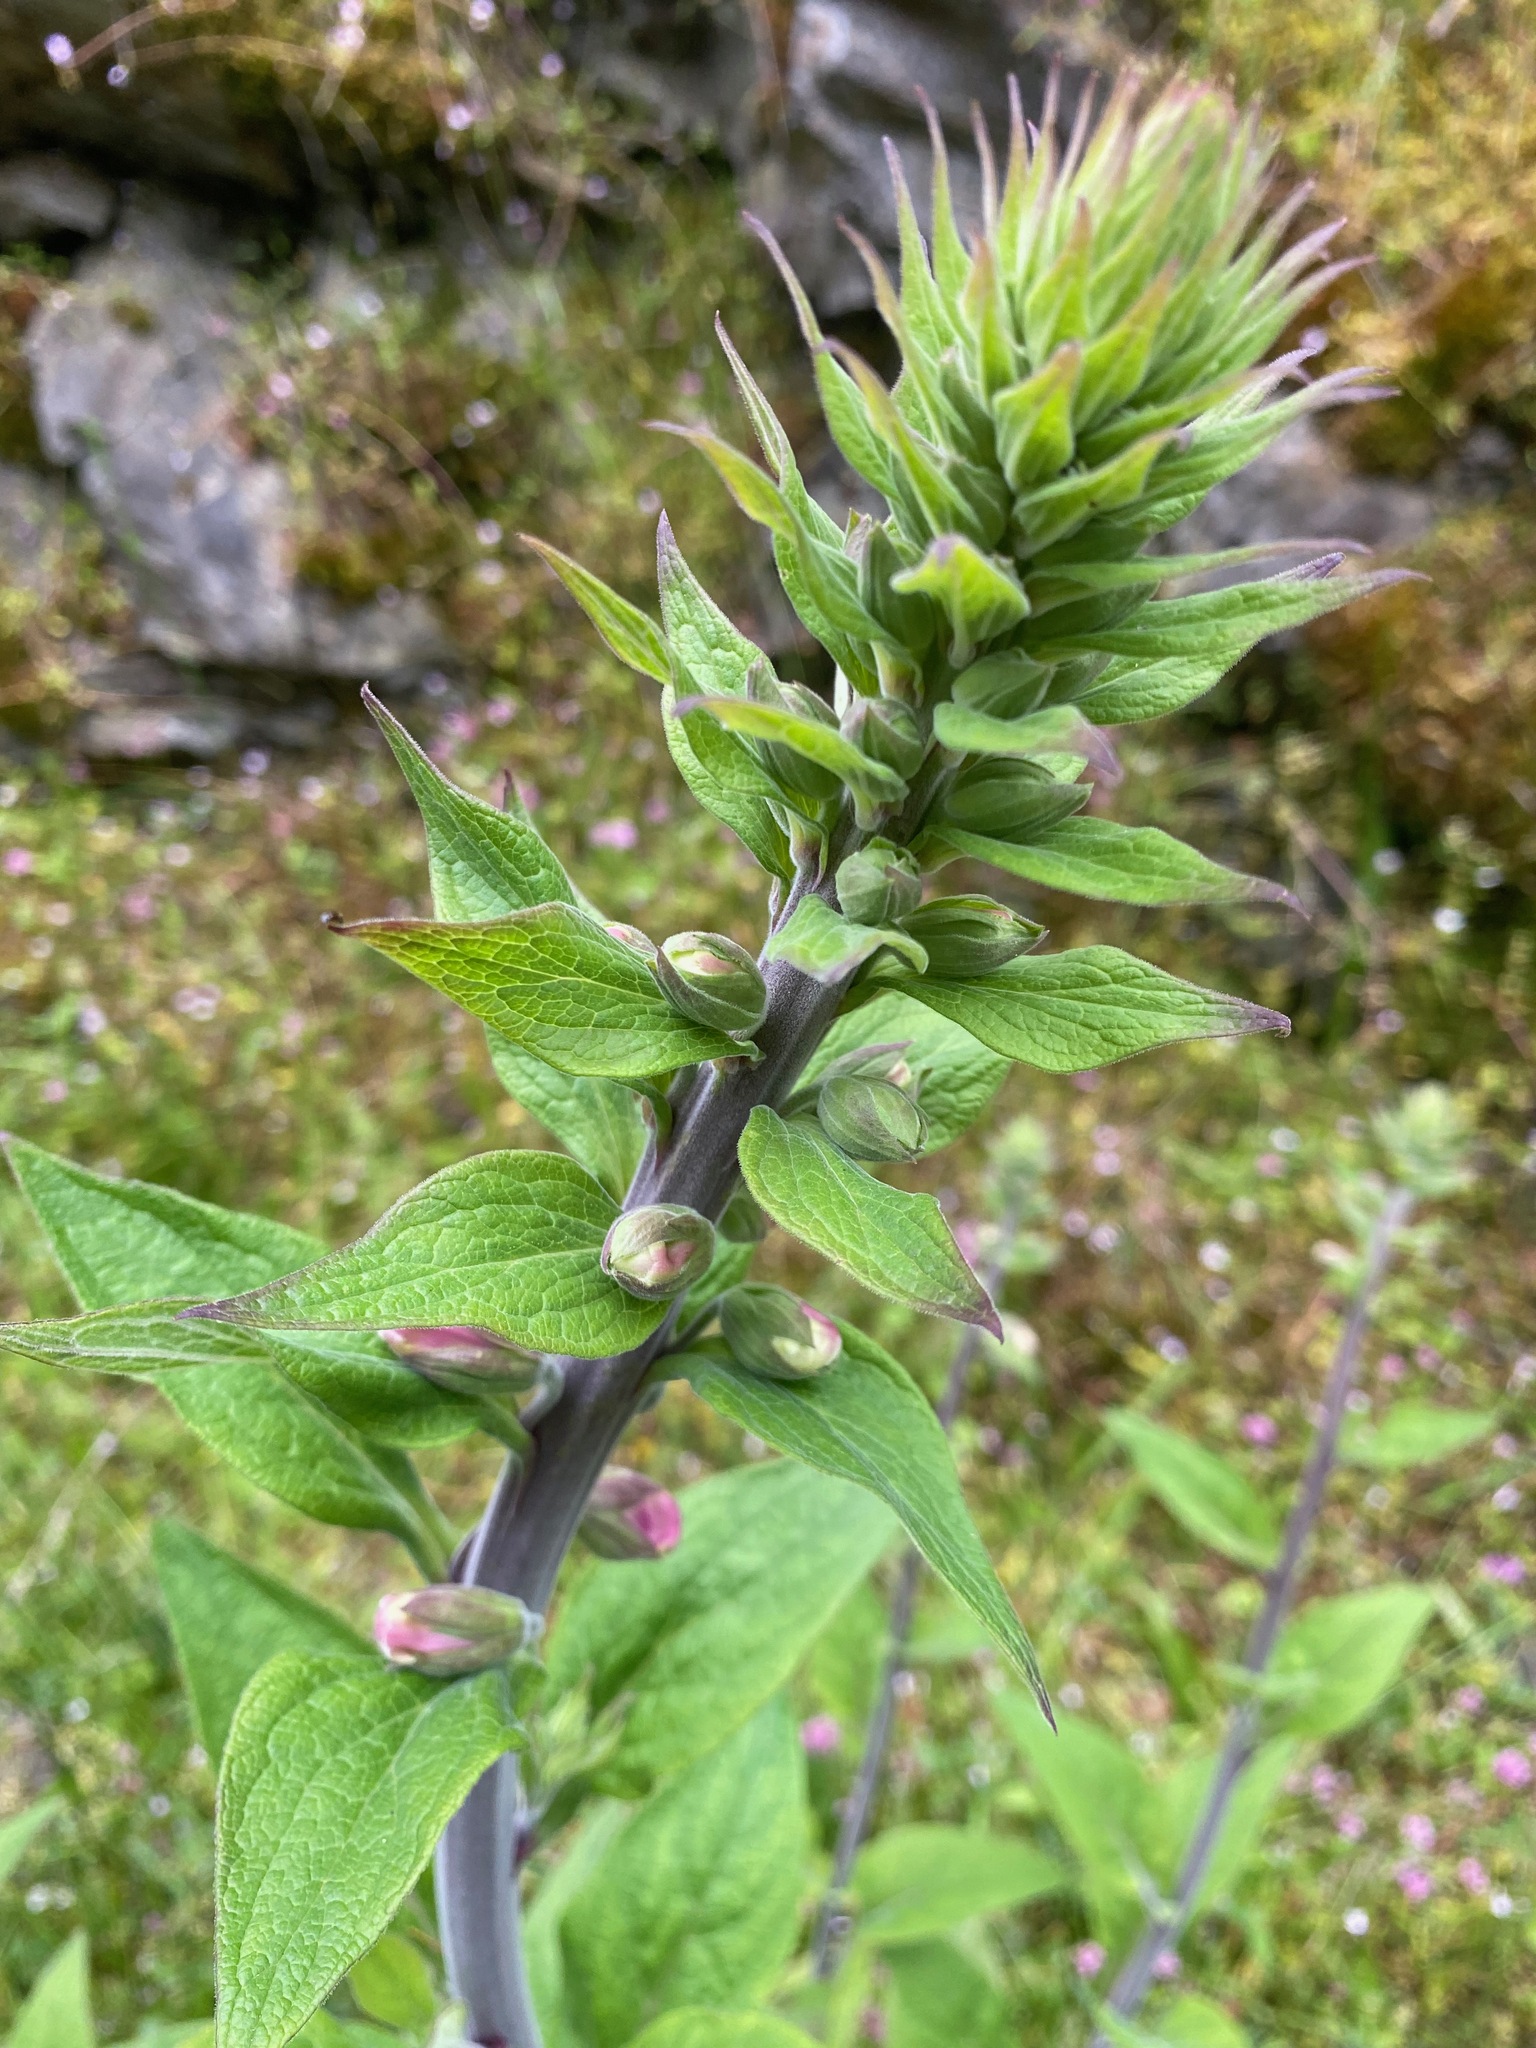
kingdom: Plantae
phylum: Tracheophyta
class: Magnoliopsida
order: Lamiales
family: Plantaginaceae
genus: Digitalis
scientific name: Digitalis purpurea
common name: Foxglove
